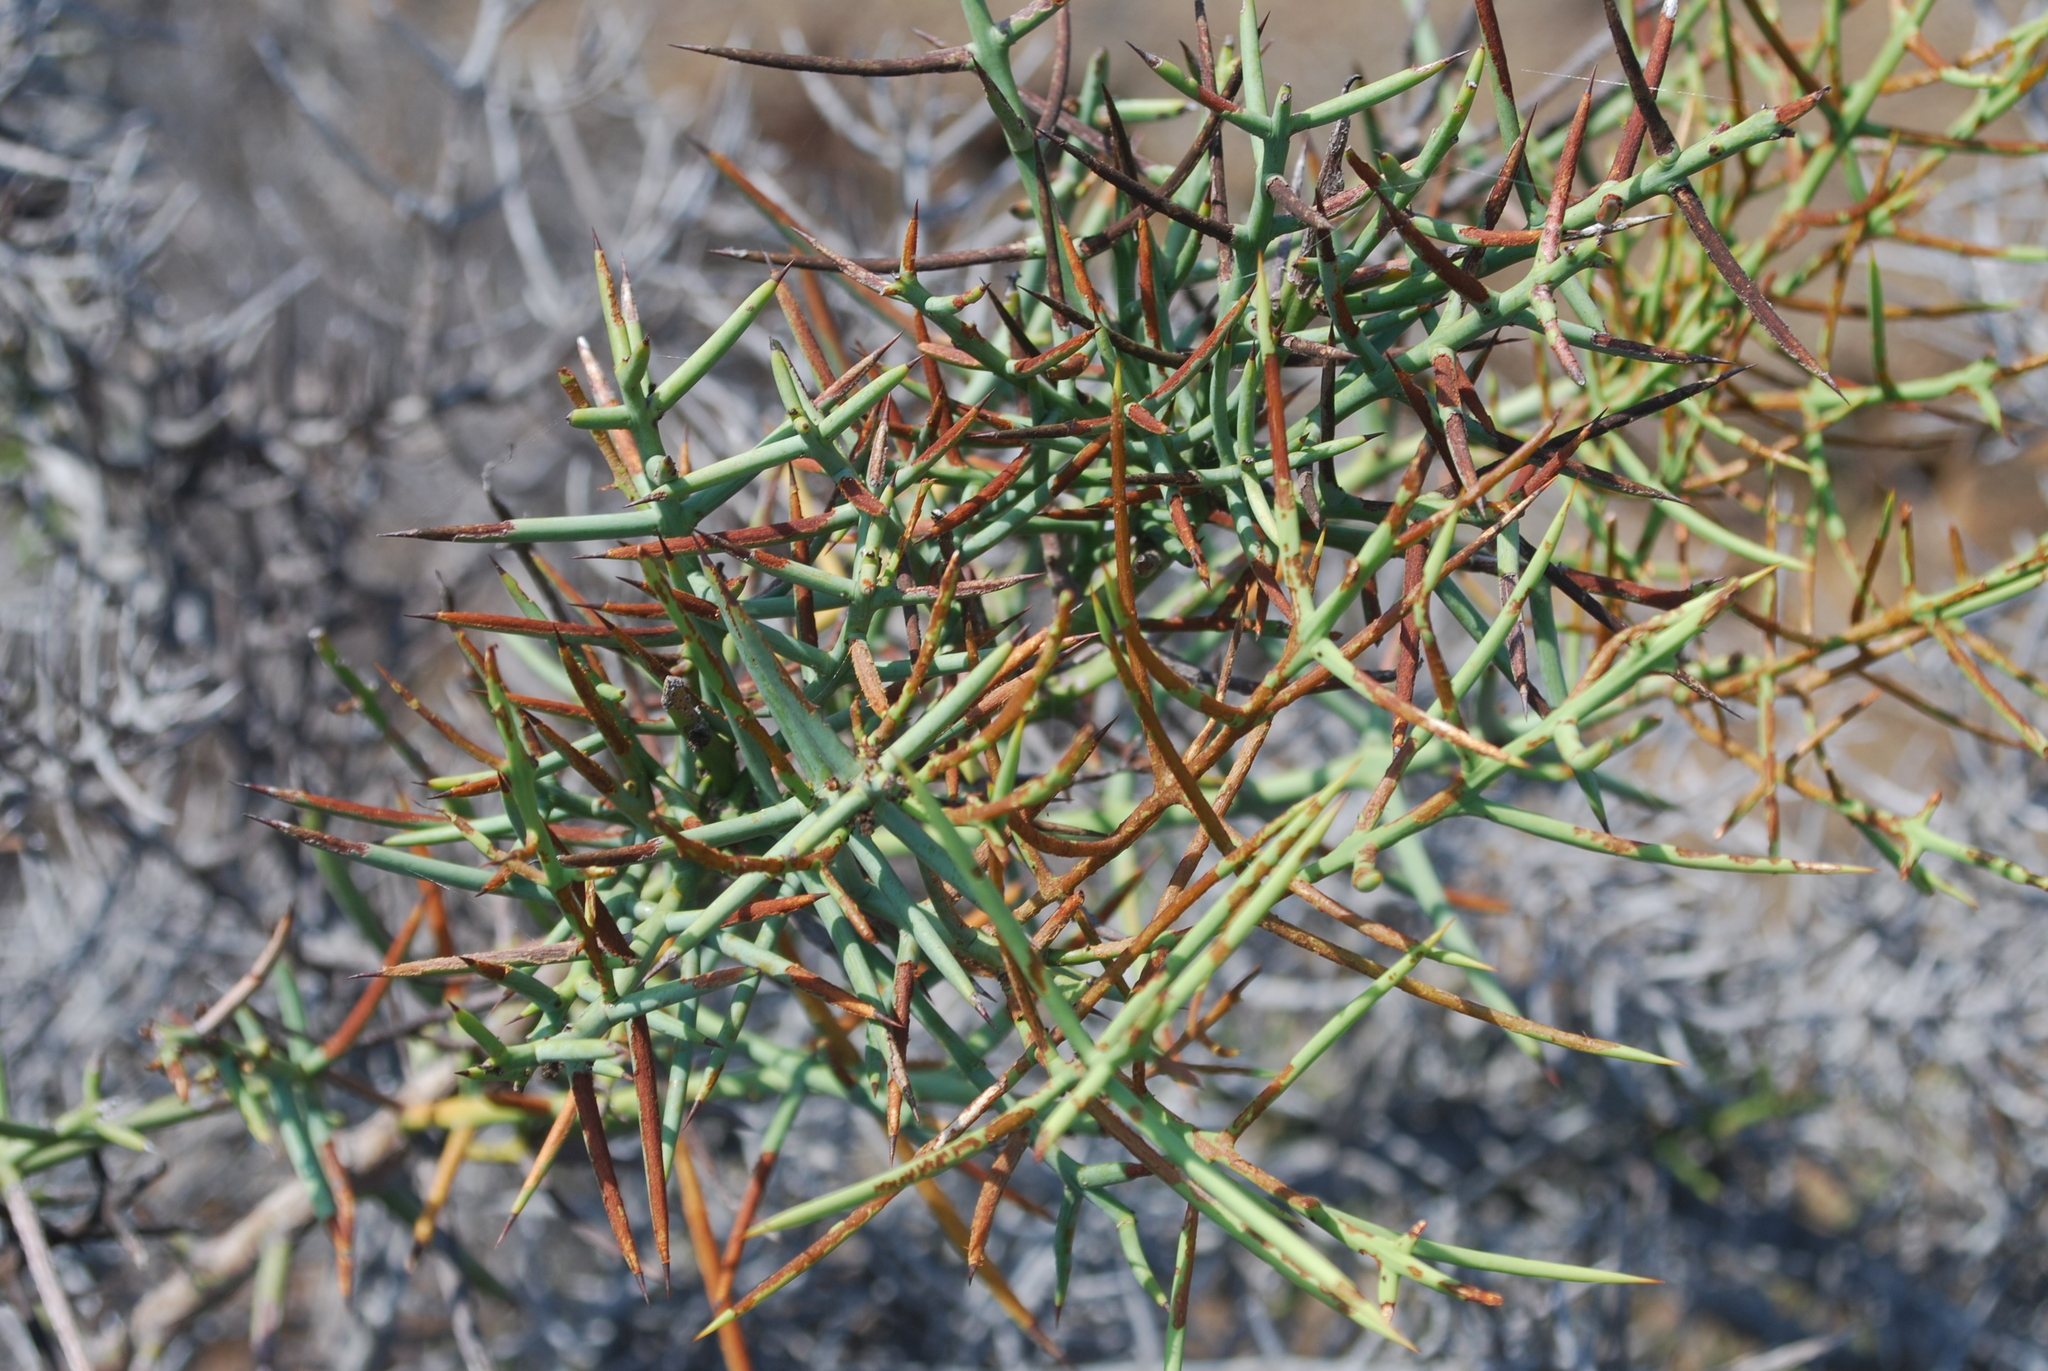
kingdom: Plantae
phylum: Tracheophyta
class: Magnoliopsida
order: Rosales
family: Rhamnaceae
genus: Scutia
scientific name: Scutia spicata
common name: Spiny bush
